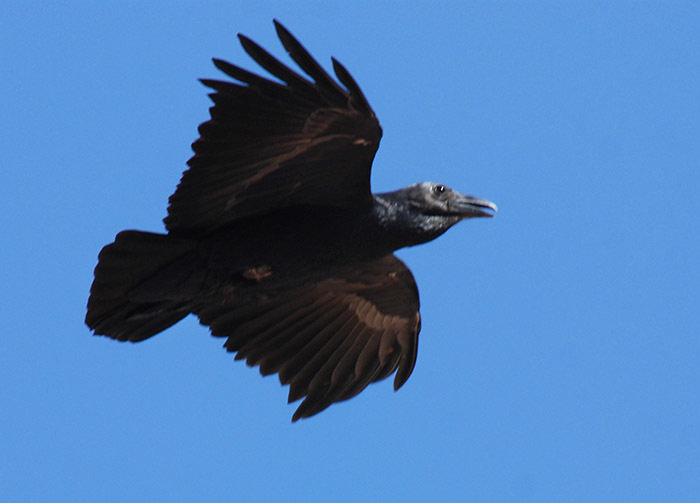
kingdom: Animalia
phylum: Chordata
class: Aves
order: Passeriformes
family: Corvidae
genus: Corvus
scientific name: Corvus rhipidurus
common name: Fan-tailed raven
